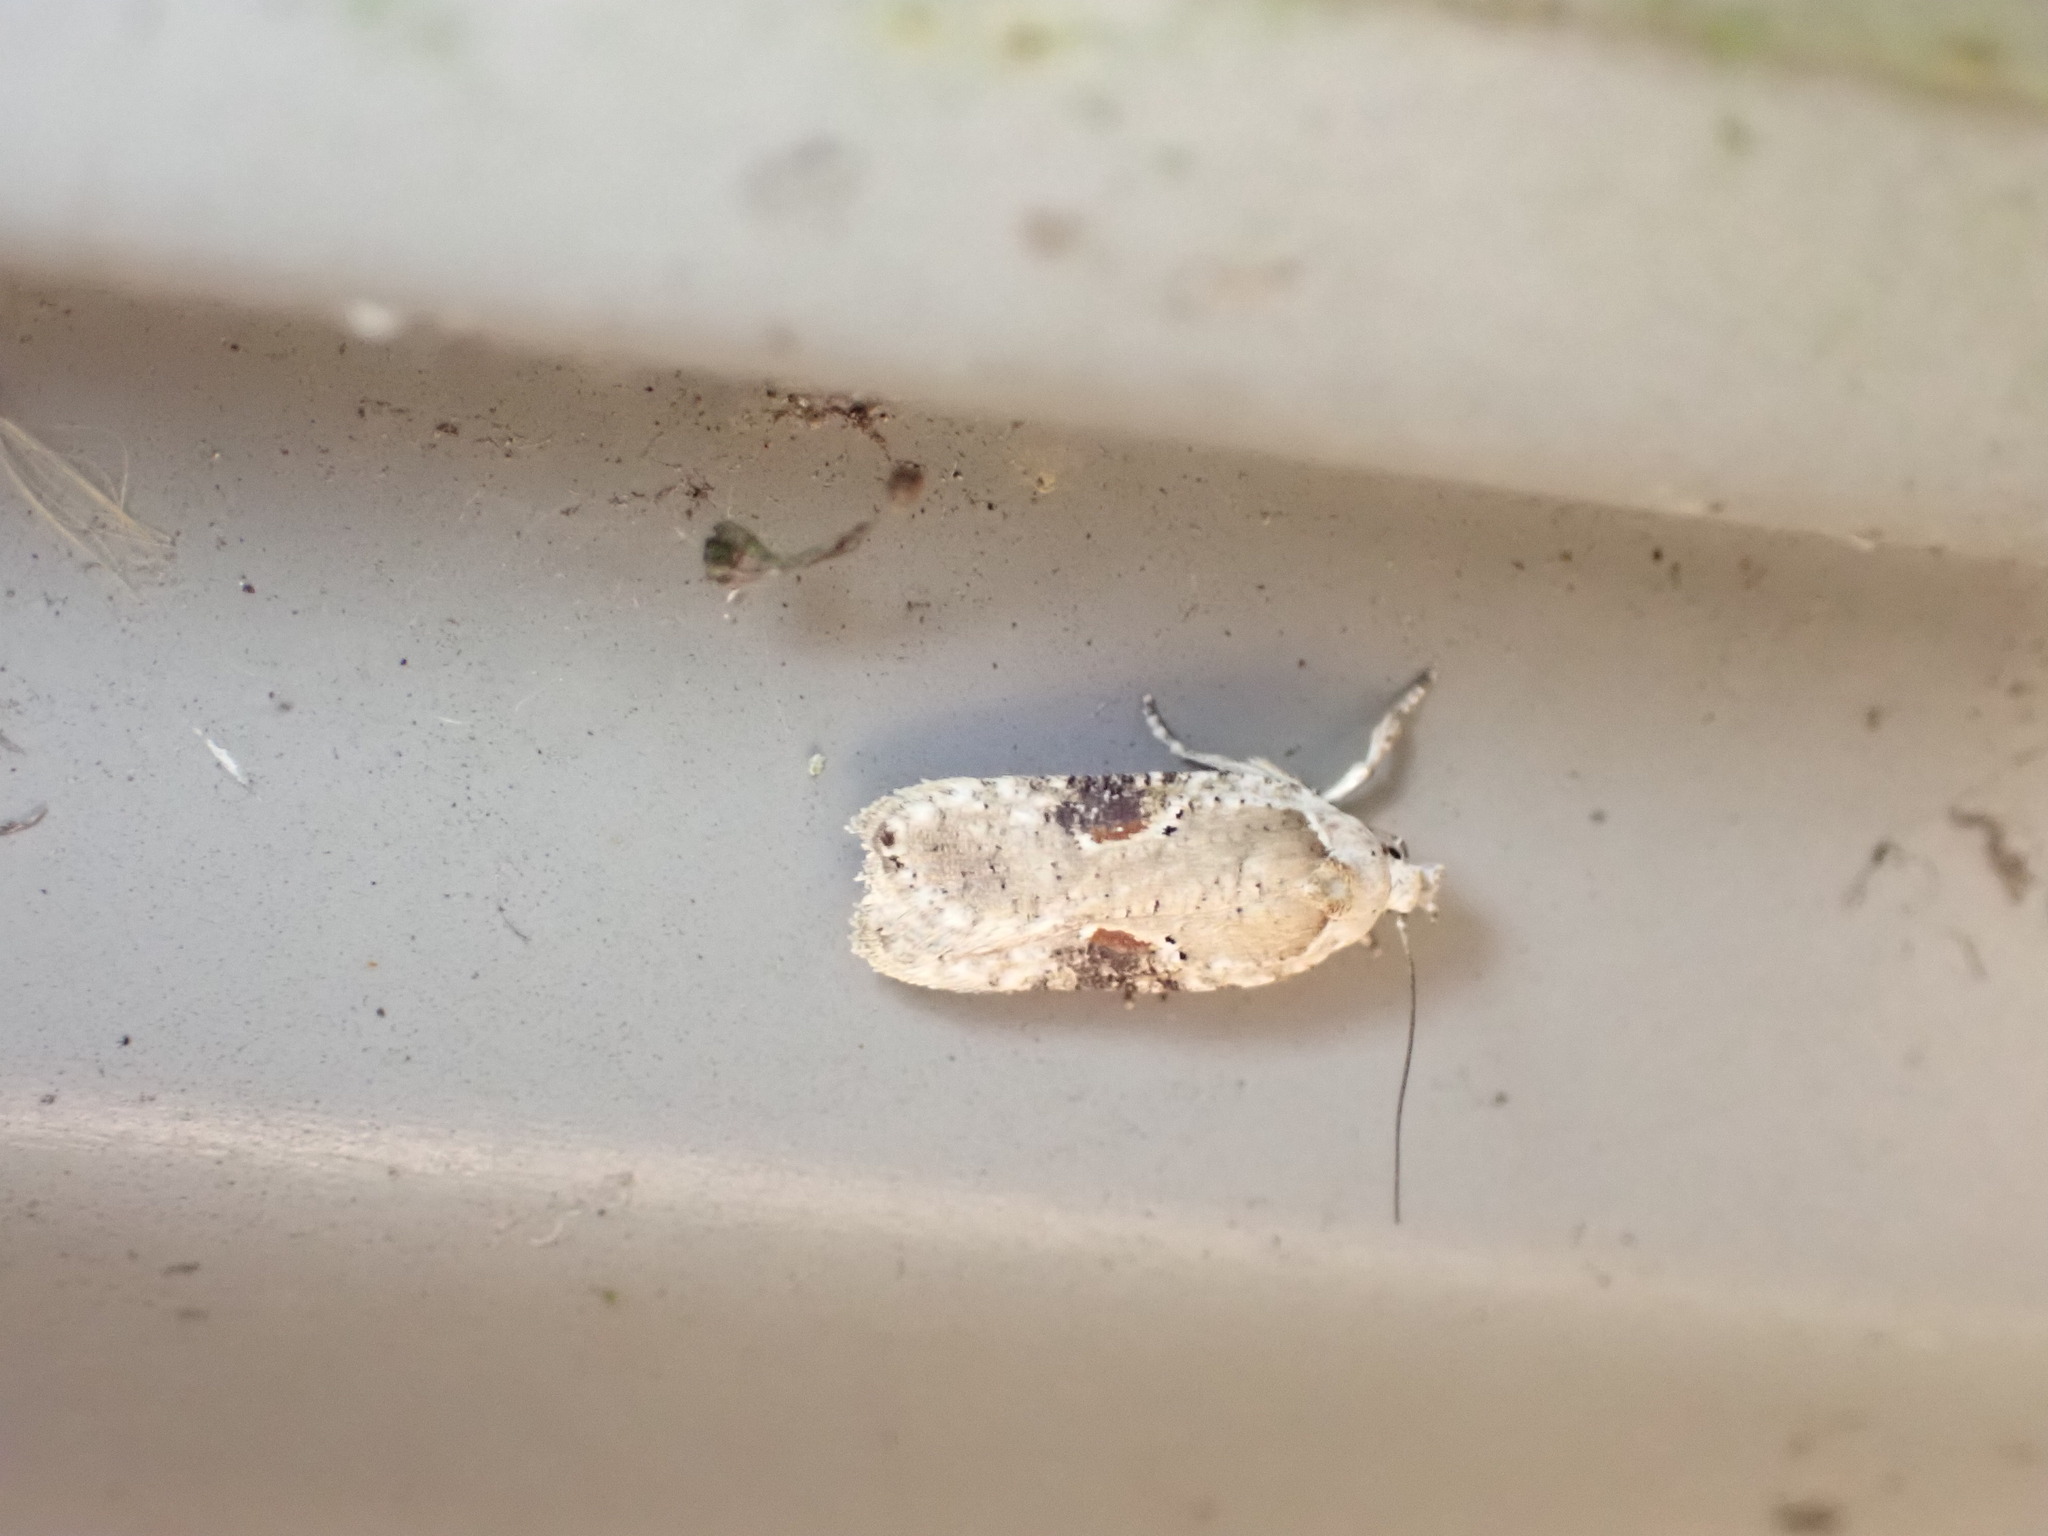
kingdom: Animalia
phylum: Arthropoda
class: Insecta
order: Lepidoptera
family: Depressariidae
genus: Agonopterix
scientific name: Agonopterix alstroemeriana
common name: Moth
